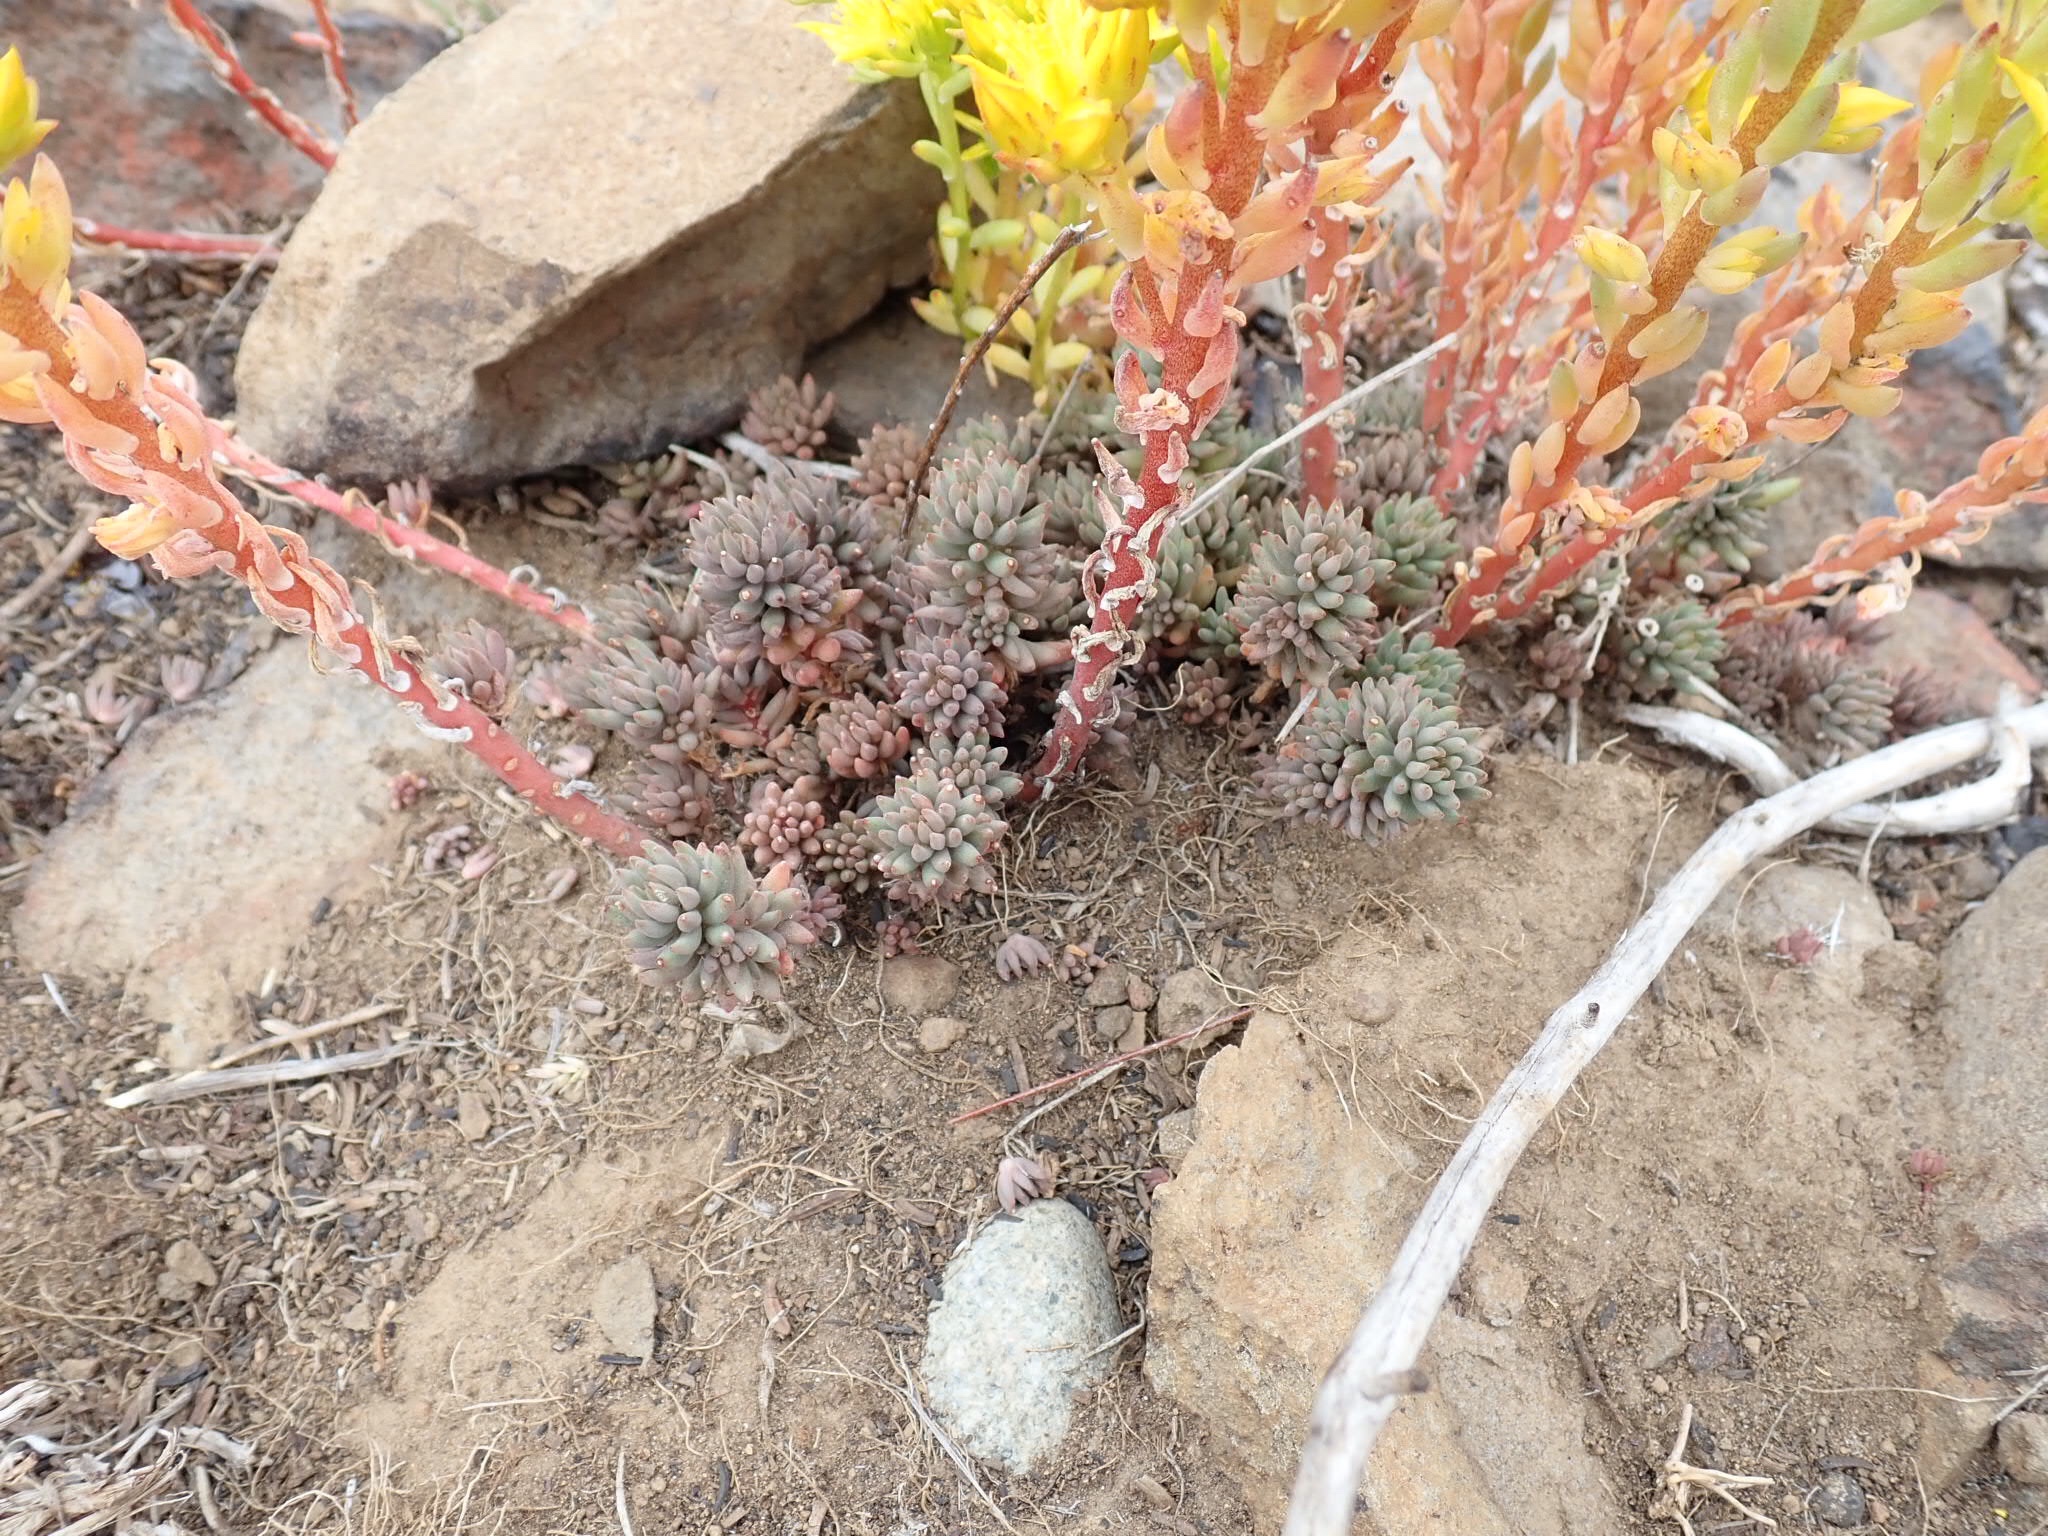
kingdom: Plantae
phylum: Tracheophyta
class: Magnoliopsida
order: Saxifragales
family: Crassulaceae
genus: Sedum
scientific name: Sedum lanceolatum
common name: Common stonecrop
